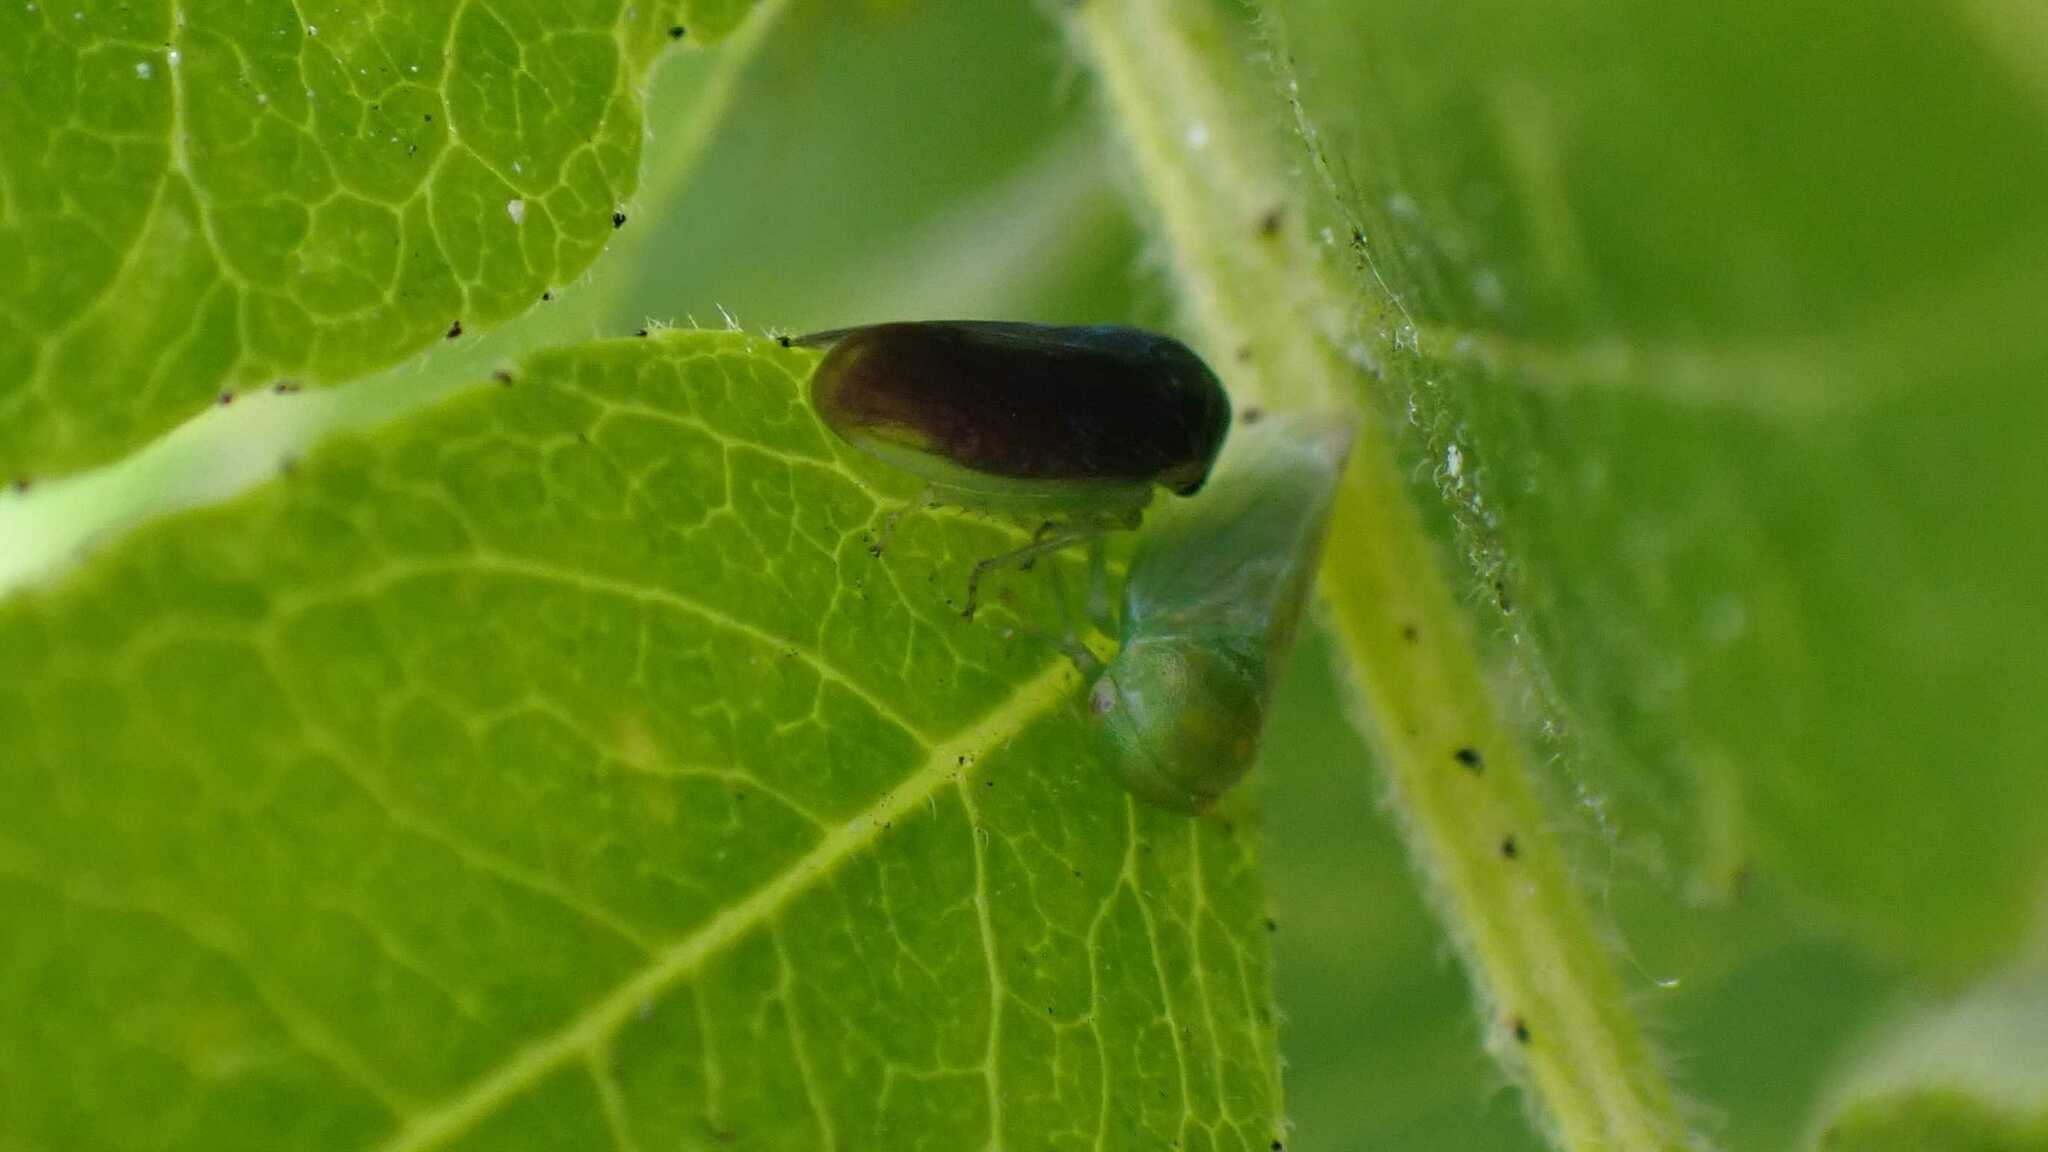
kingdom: Animalia
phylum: Arthropoda
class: Insecta
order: Hemiptera
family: Cicadellidae
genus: Macropsis
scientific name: Macropsis fumipennis
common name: The honeylocust leafhopper
